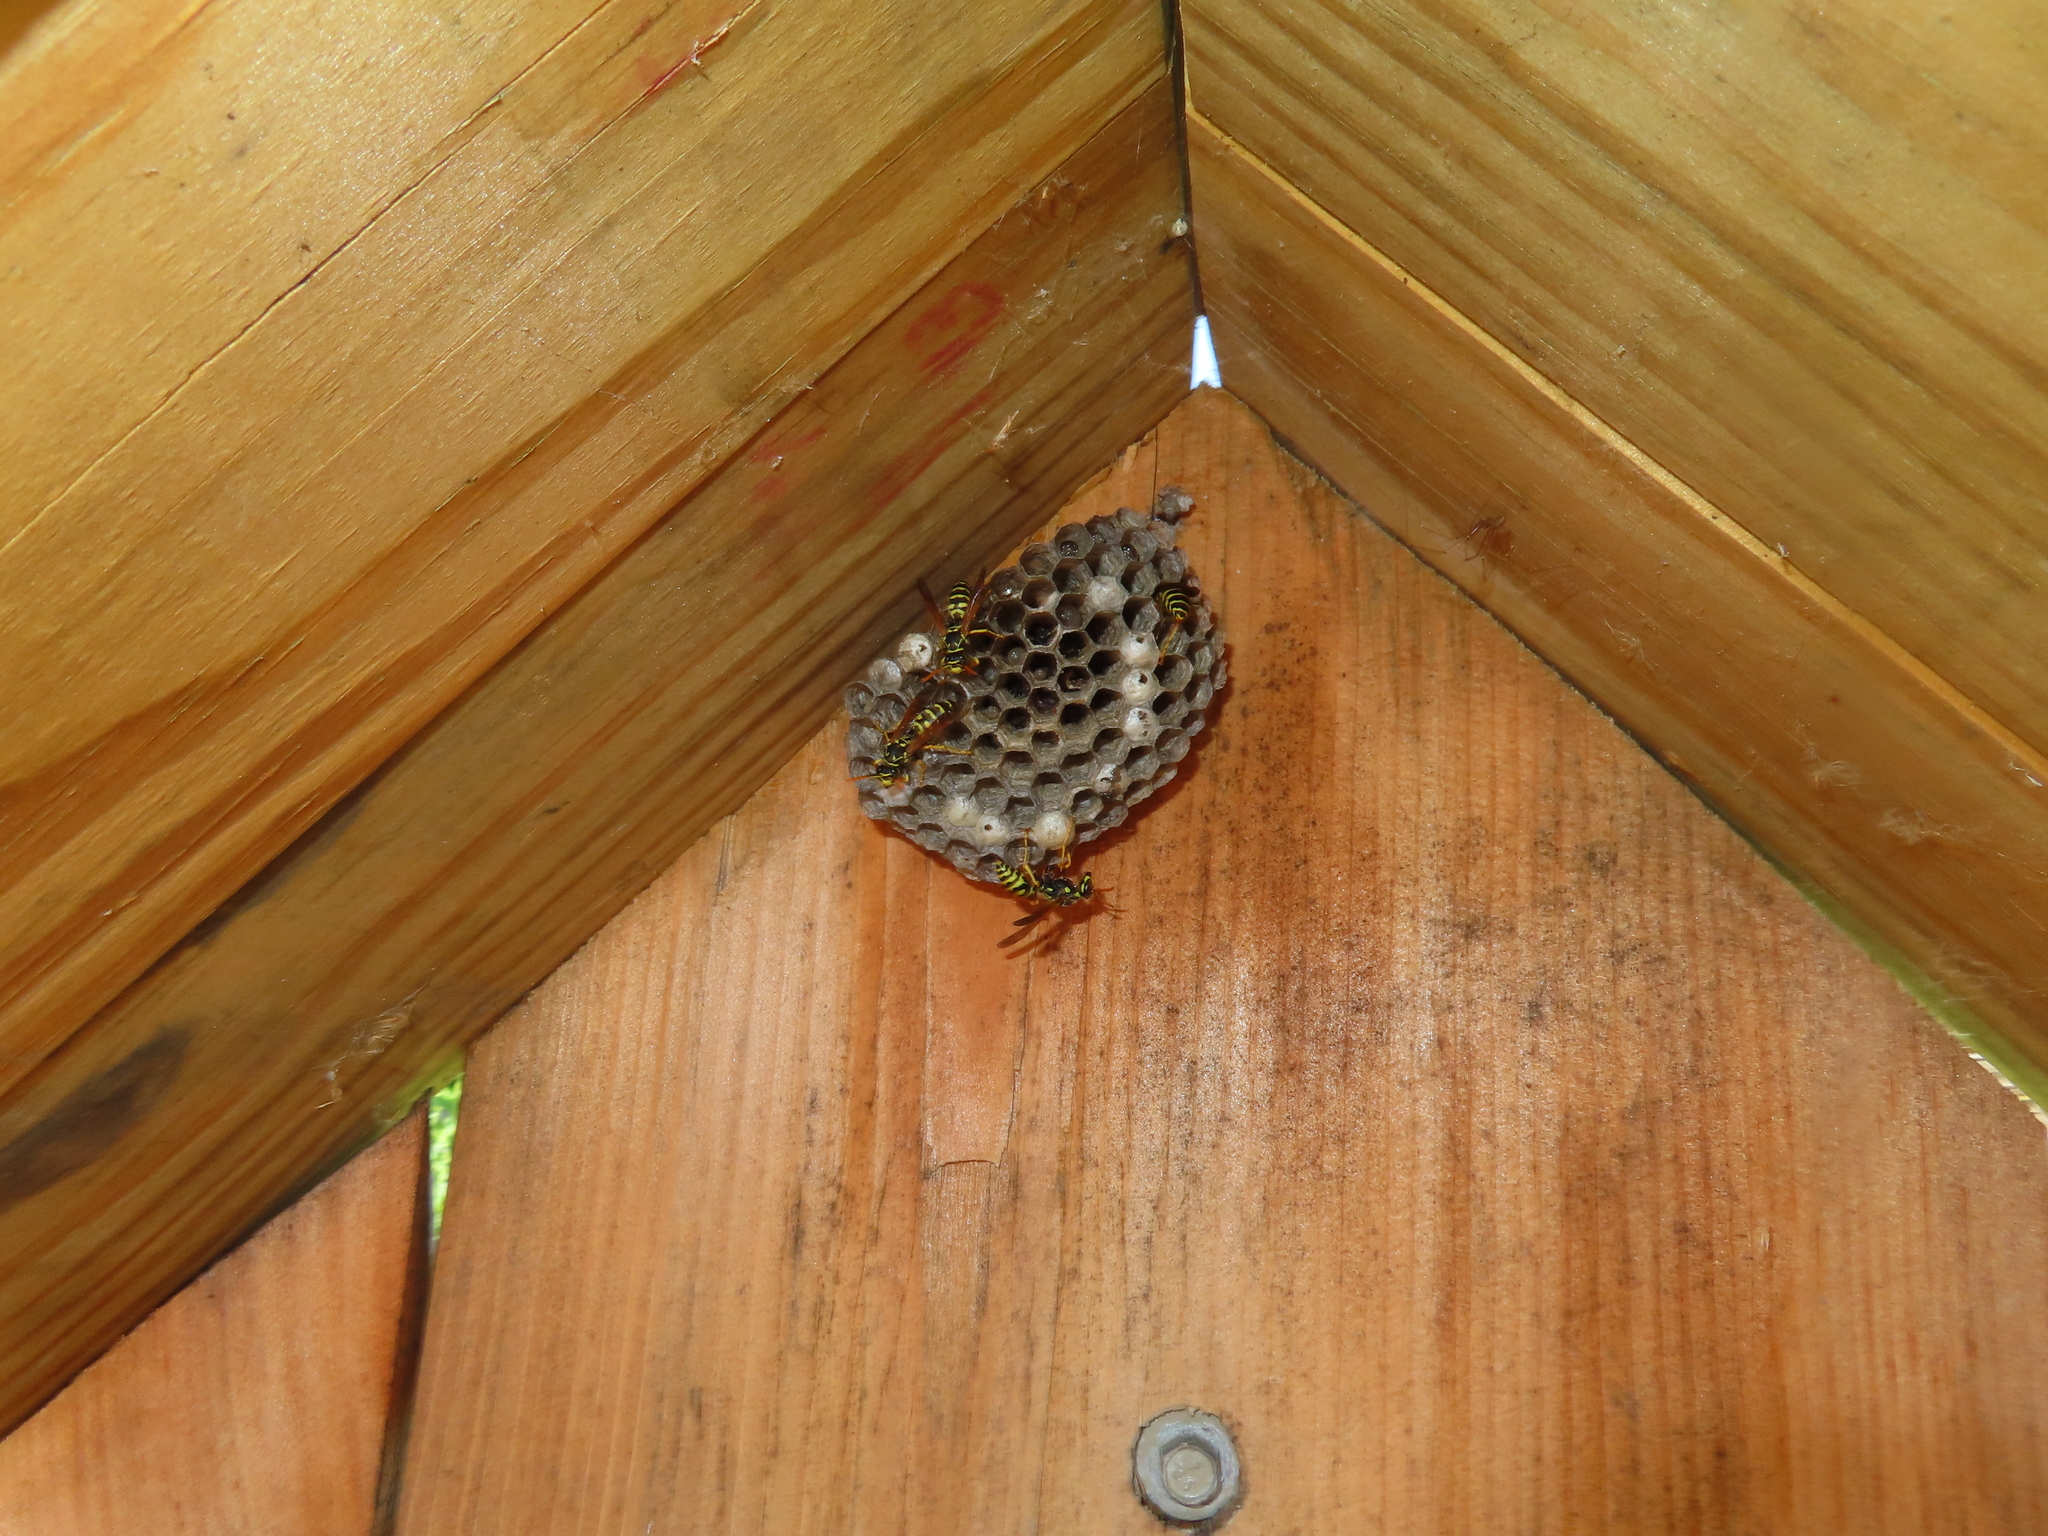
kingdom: Animalia
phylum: Arthropoda
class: Insecta
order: Hymenoptera
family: Eumenidae
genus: Polistes
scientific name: Polistes dominula
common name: Paper wasp
